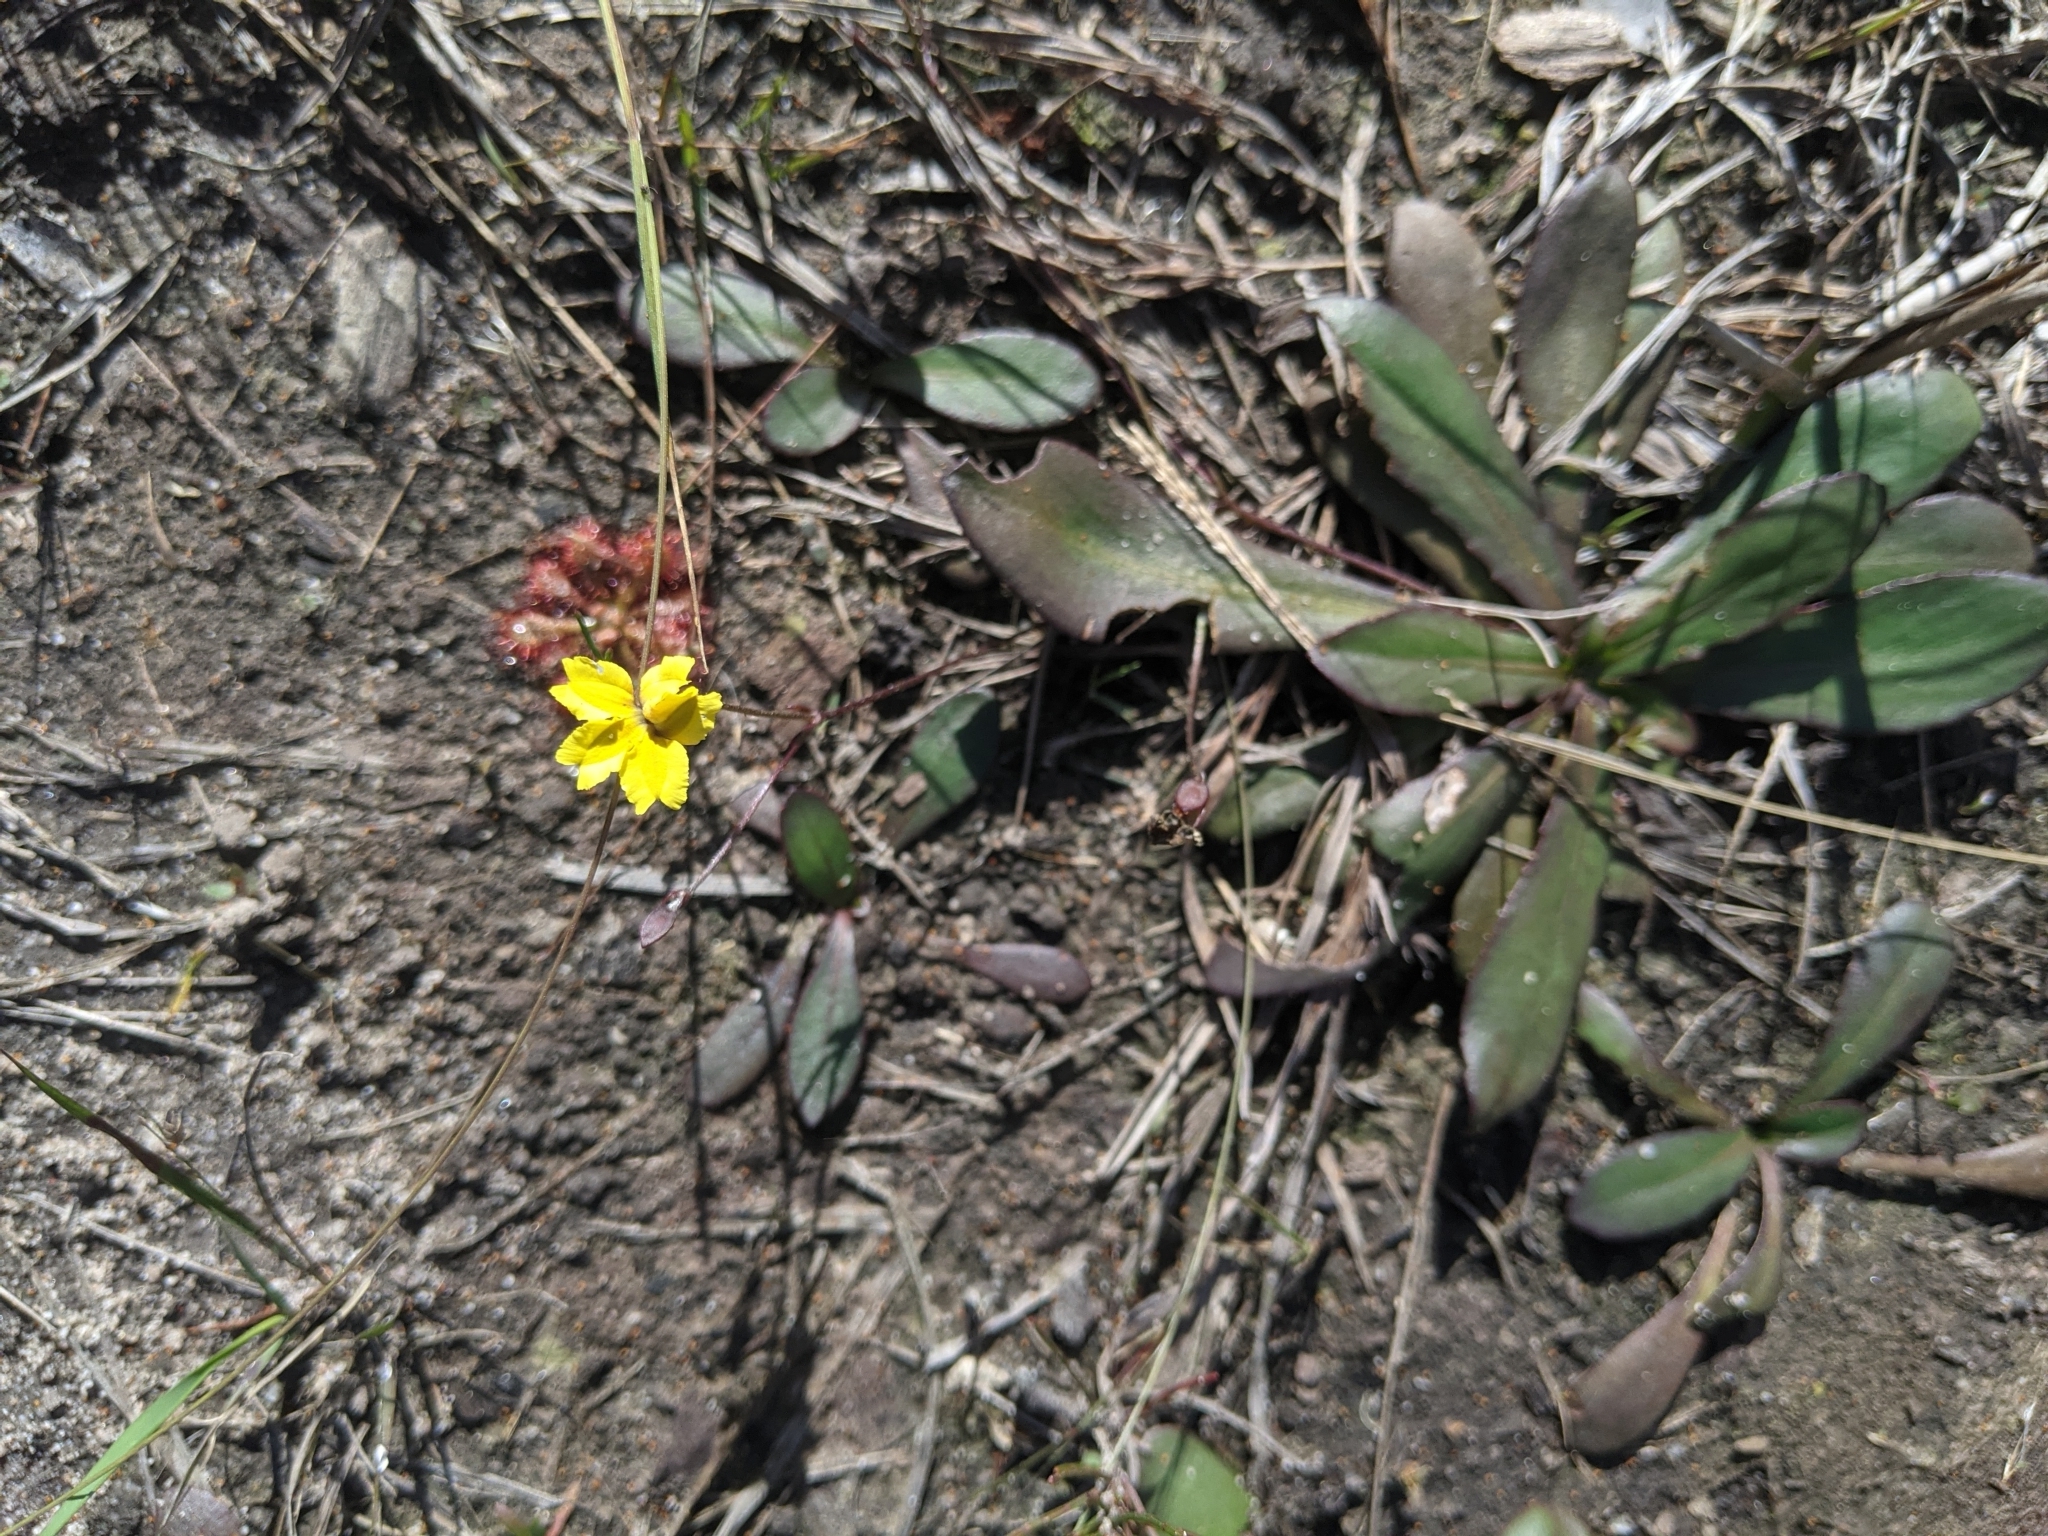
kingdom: Plantae
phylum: Tracheophyta
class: Magnoliopsida
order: Asterales
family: Goodeniaceae
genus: Goodenia
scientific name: Goodenia mystrophylla
